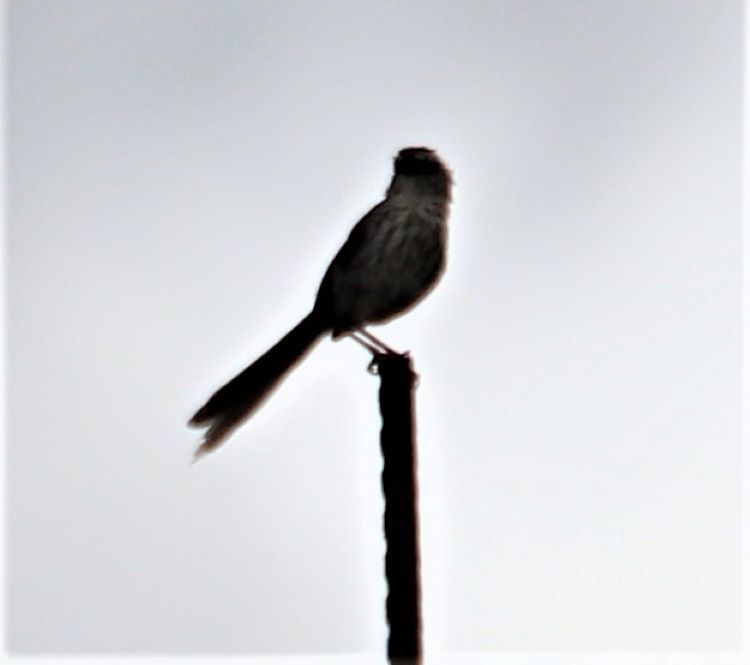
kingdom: Animalia
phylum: Chordata
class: Aves
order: Passeriformes
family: Cisticolidae
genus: Prinia
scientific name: Prinia maculosa
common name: Karoo prinia
